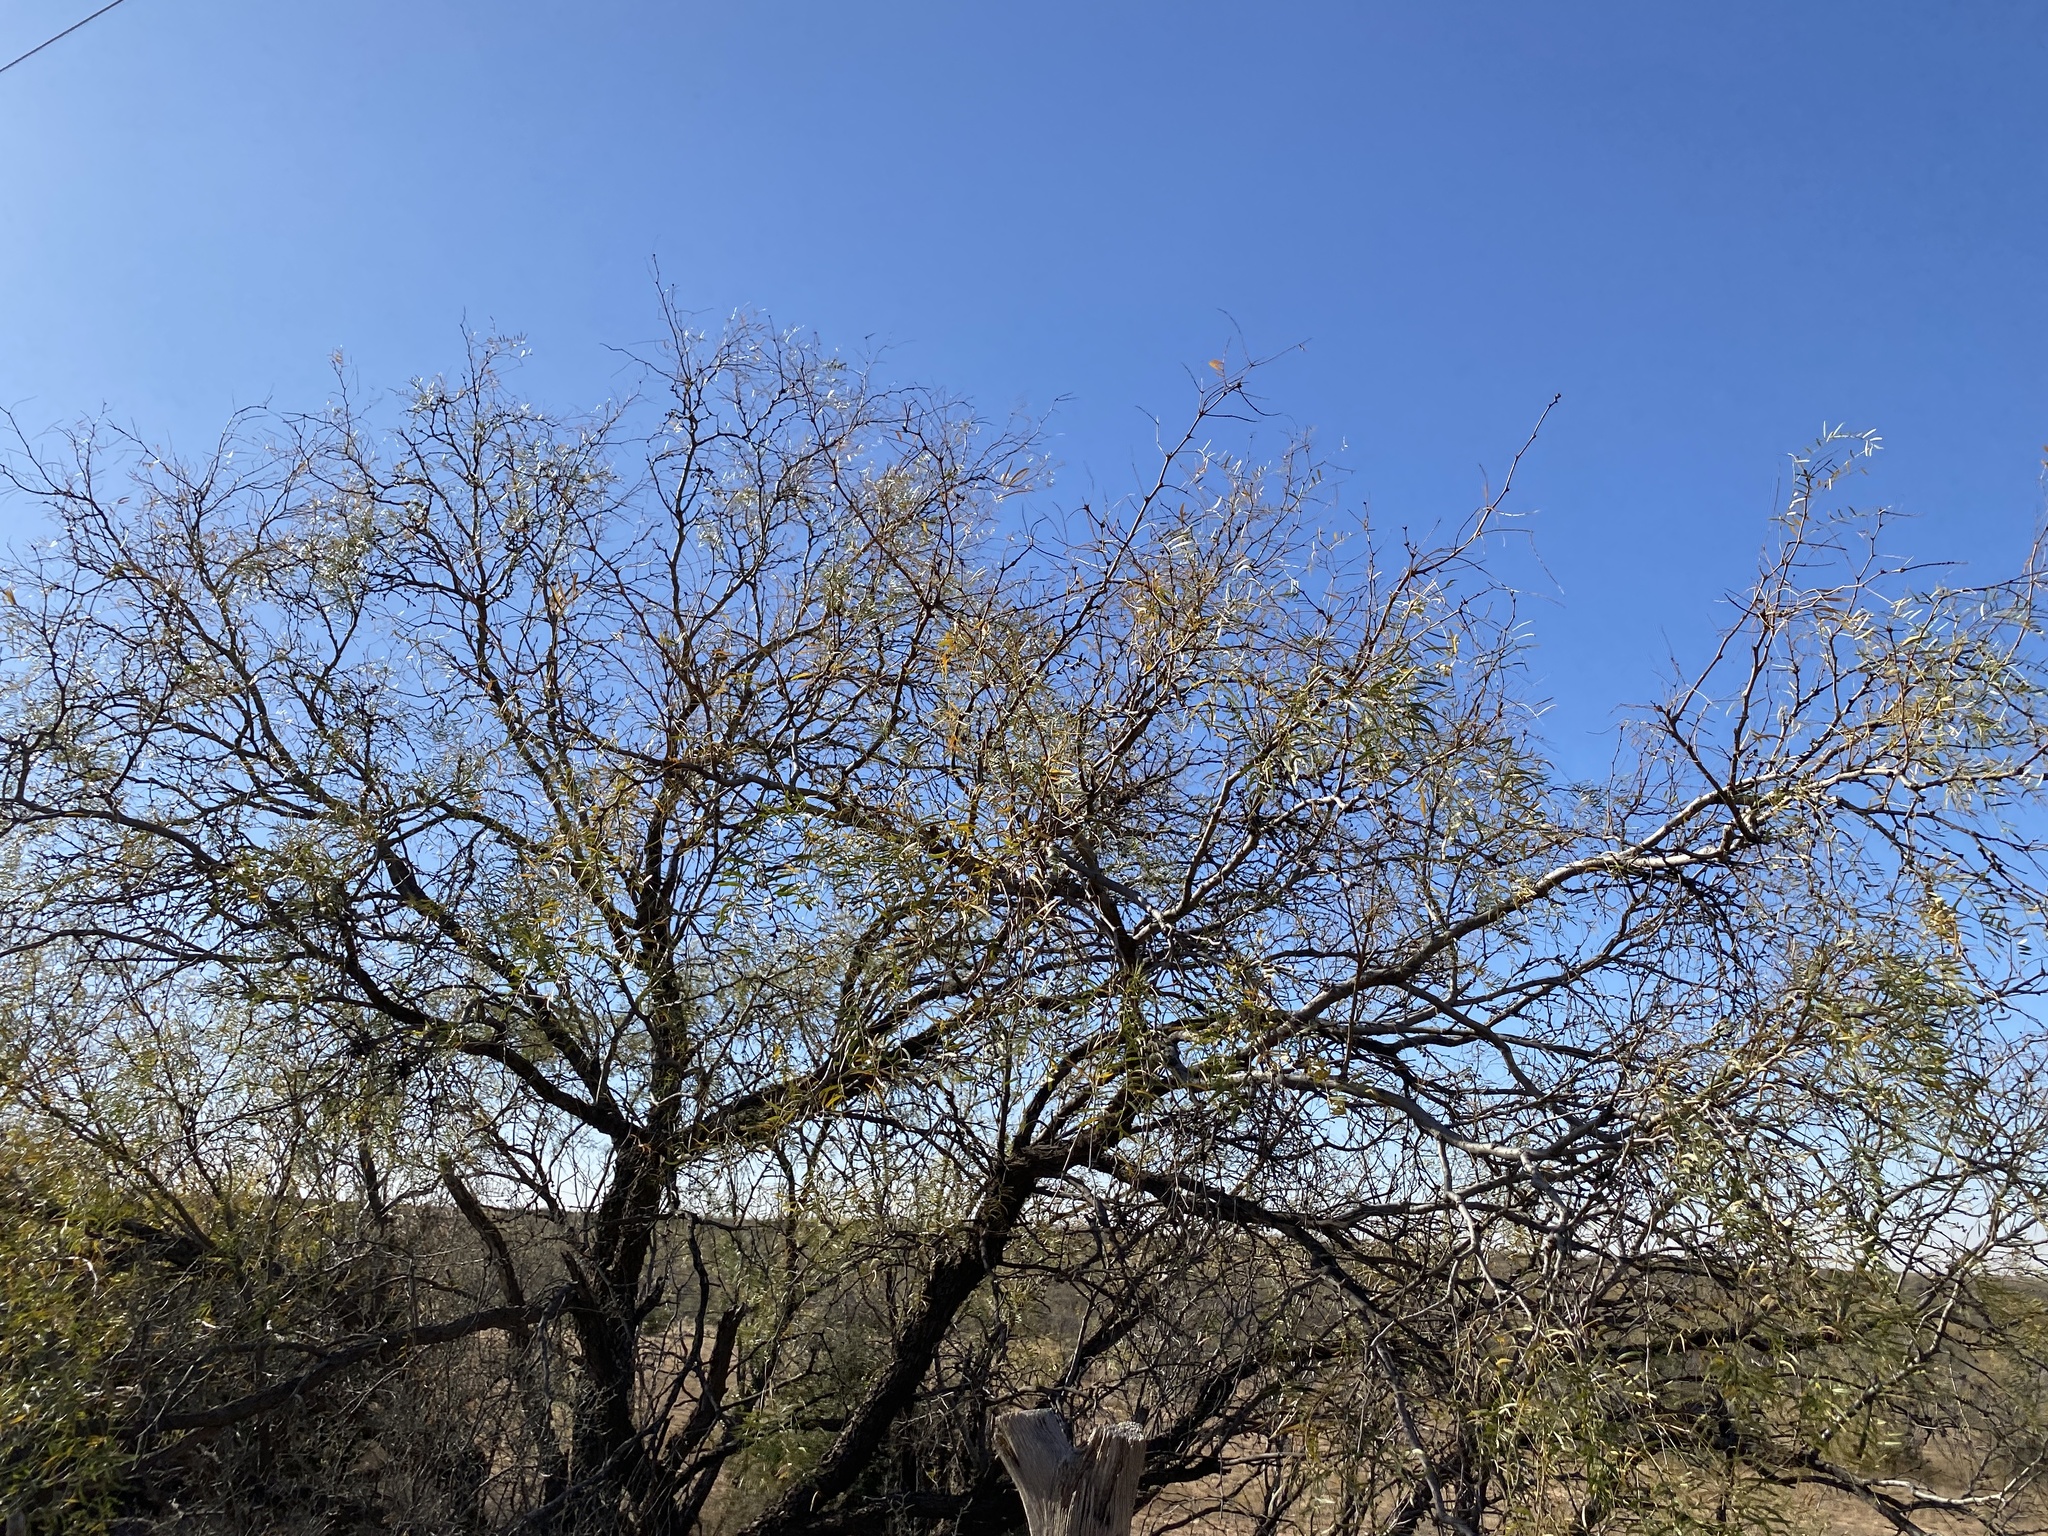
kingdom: Plantae
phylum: Tracheophyta
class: Magnoliopsida
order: Fabales
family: Fabaceae
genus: Prosopis
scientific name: Prosopis glandulosa
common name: Honey mesquite
